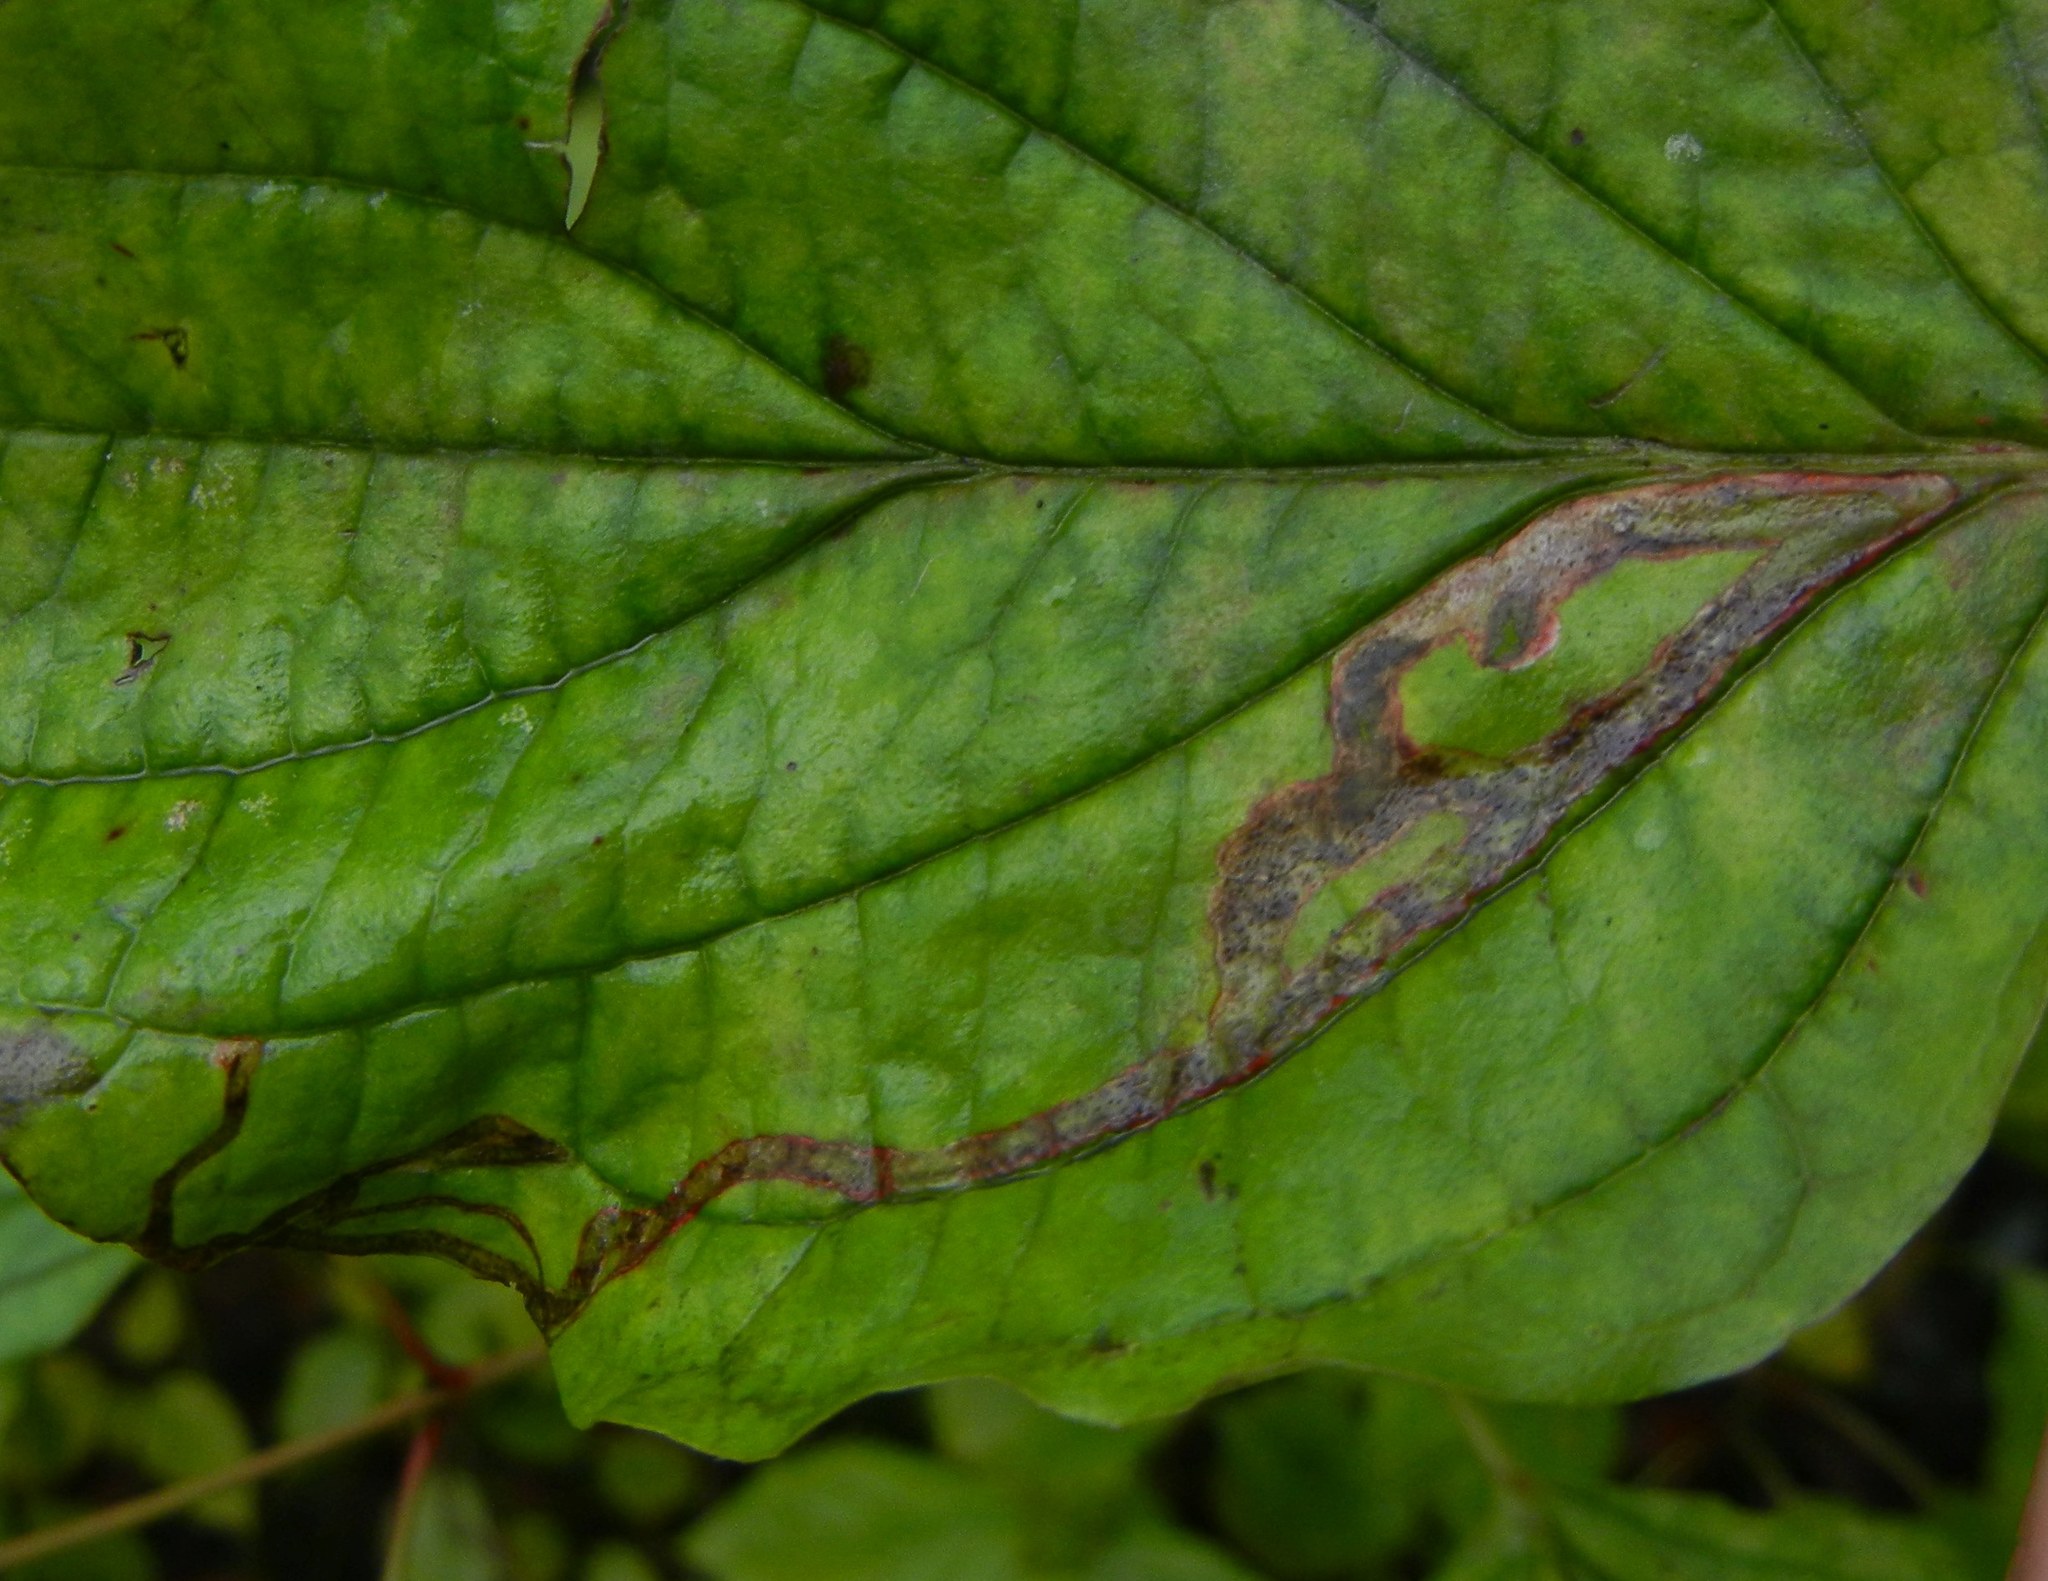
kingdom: Animalia
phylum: Arthropoda
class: Insecta
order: Diptera
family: Agromyzidae
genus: Phytomyza
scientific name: Phytomyza agromyzina
